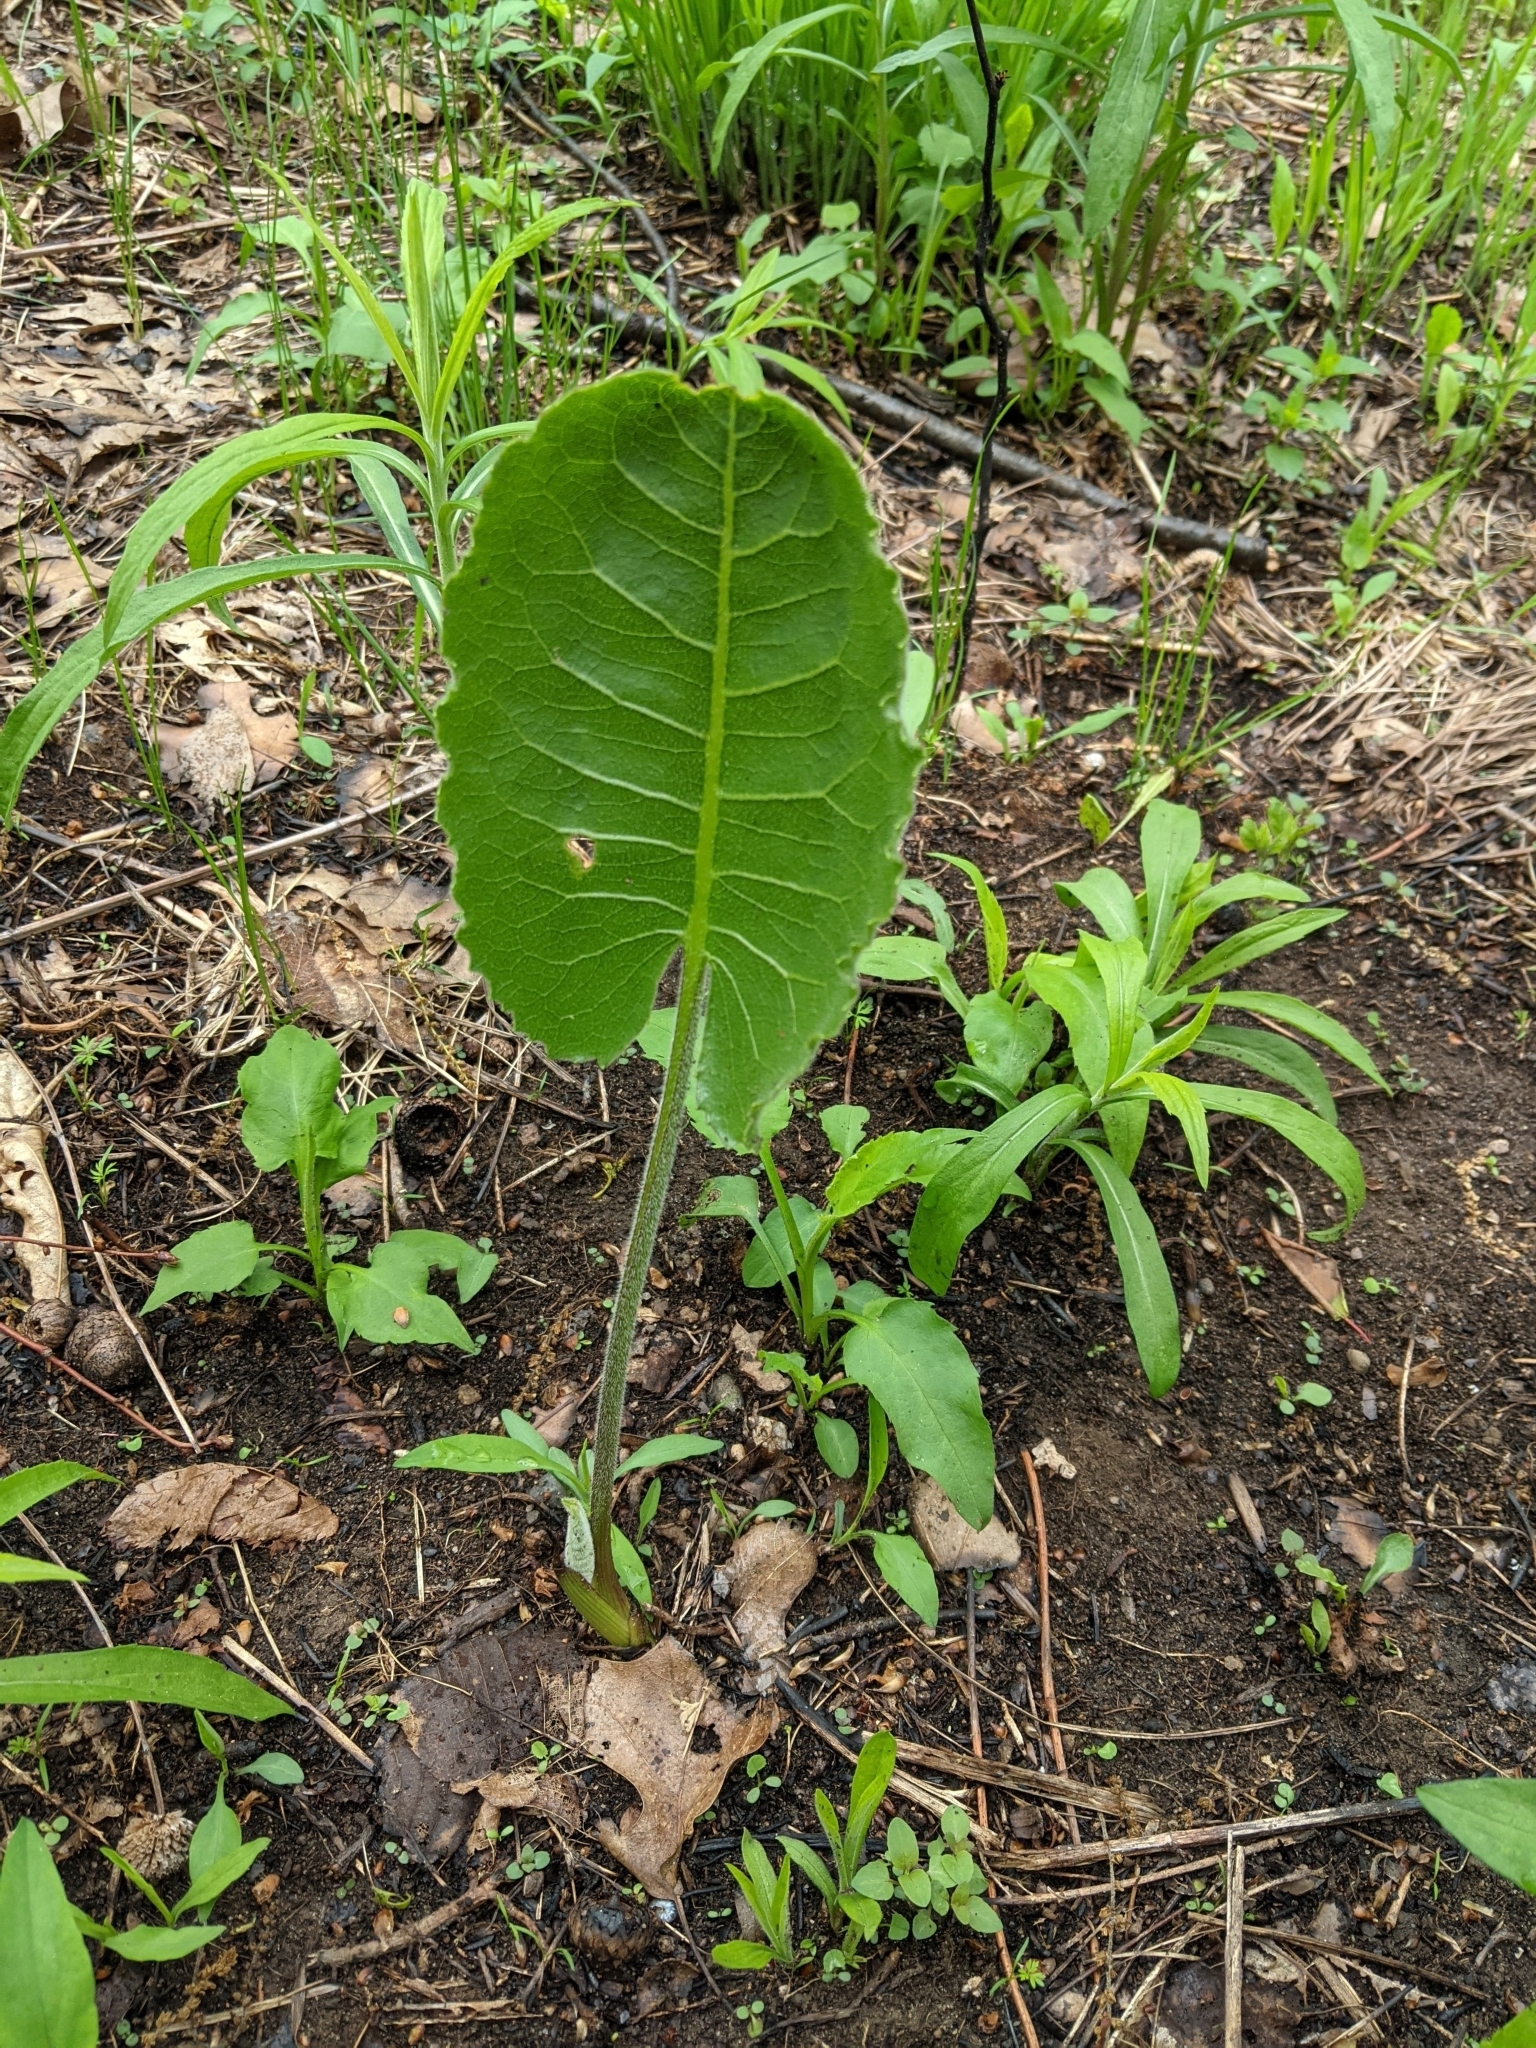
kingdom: Plantae
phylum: Tracheophyta
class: Magnoliopsida
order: Asterales
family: Asteraceae
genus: Silphium
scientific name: Silphium terebinthinaceum
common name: Basal-leaf rosinweed
